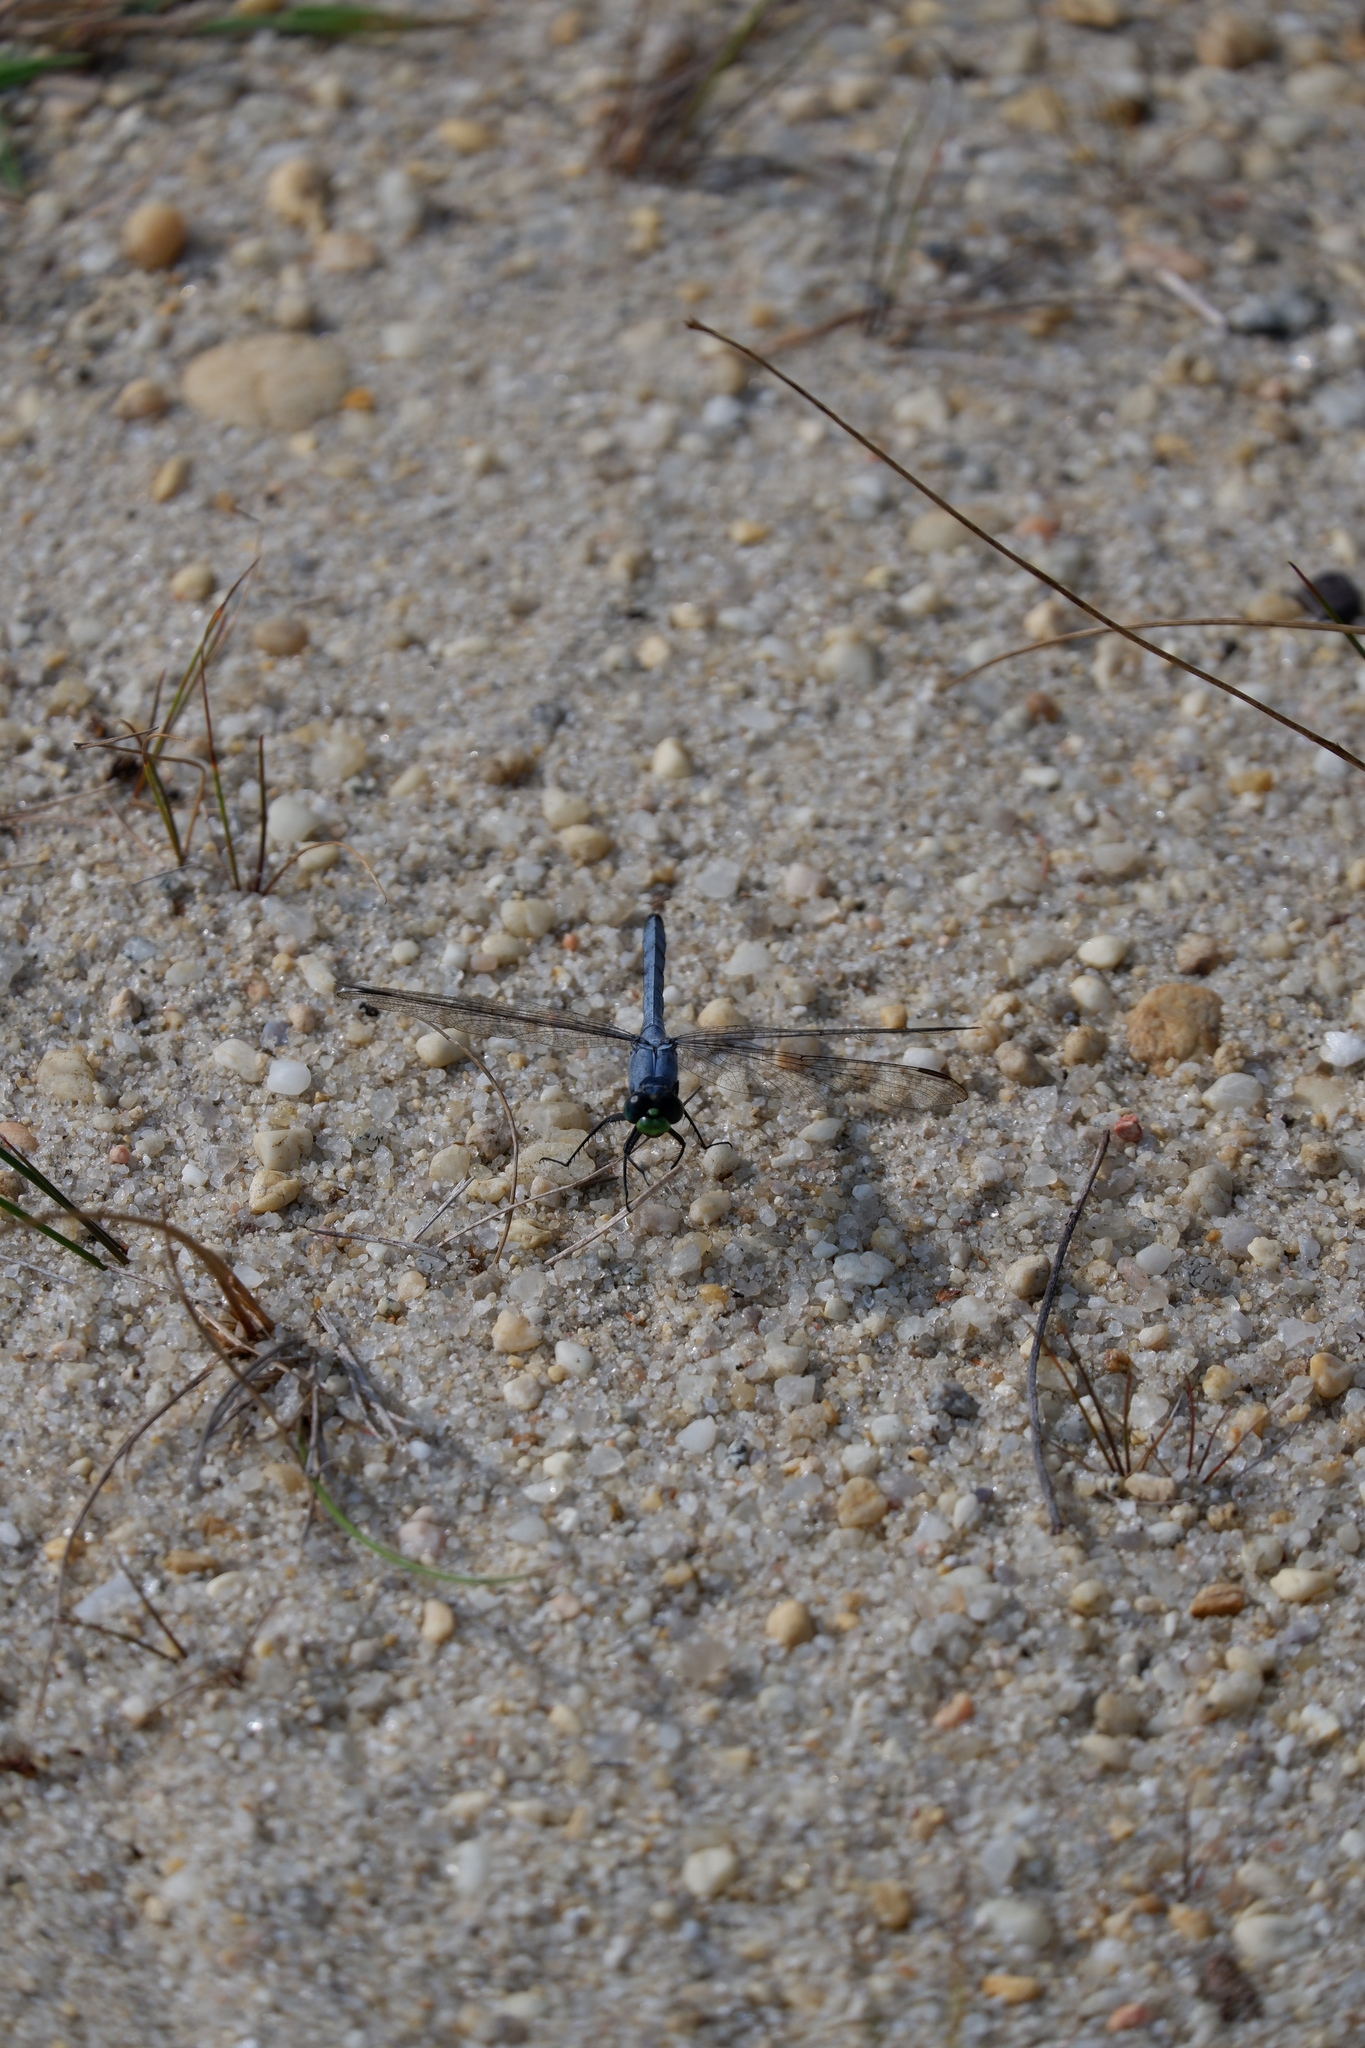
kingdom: Animalia
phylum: Arthropoda
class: Insecta
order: Odonata
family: Libellulidae
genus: Erythemis
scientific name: Erythemis simplicicollis
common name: Eastern pondhawk
